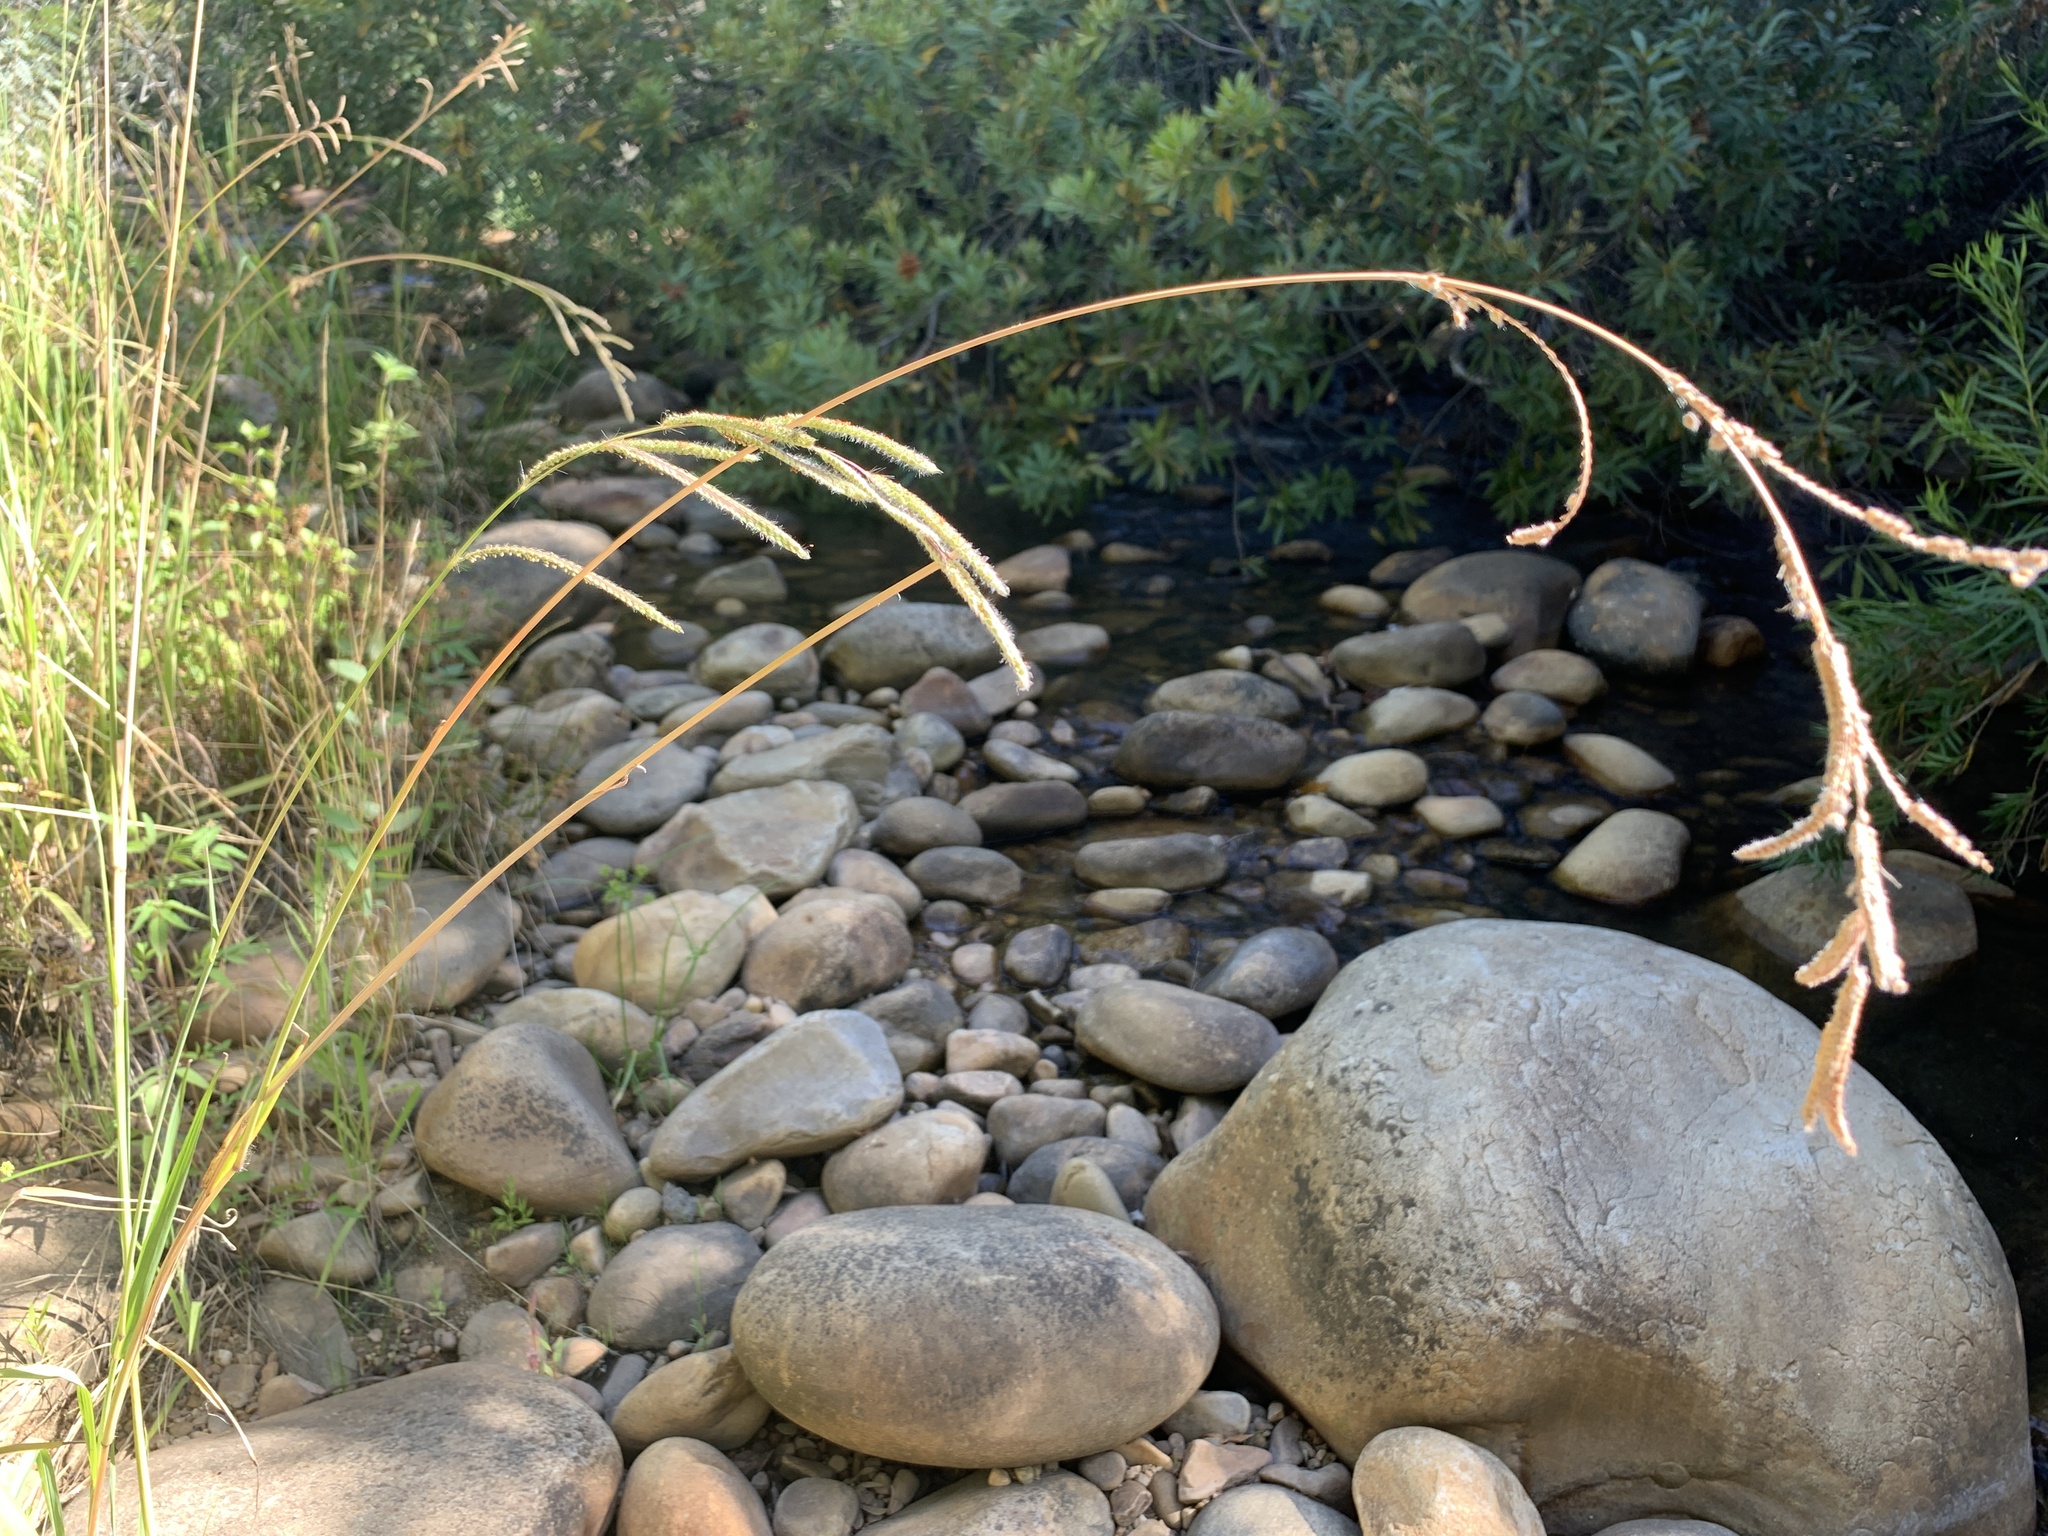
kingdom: Plantae
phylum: Tracheophyta
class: Liliopsida
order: Poales
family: Poaceae
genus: Paspalum
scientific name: Paspalum urvillei
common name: Vasey's grass
